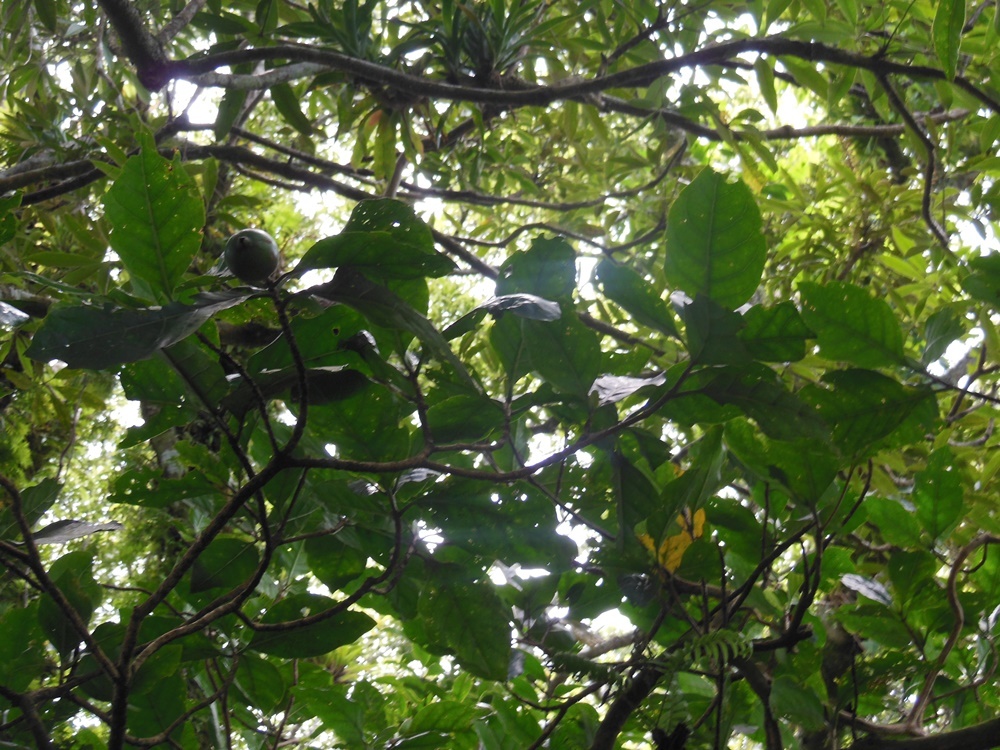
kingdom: Plantae
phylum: Tracheophyta
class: Magnoliopsida
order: Gentianales
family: Rubiaceae
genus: Alibertia
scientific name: Alibertia edulis
